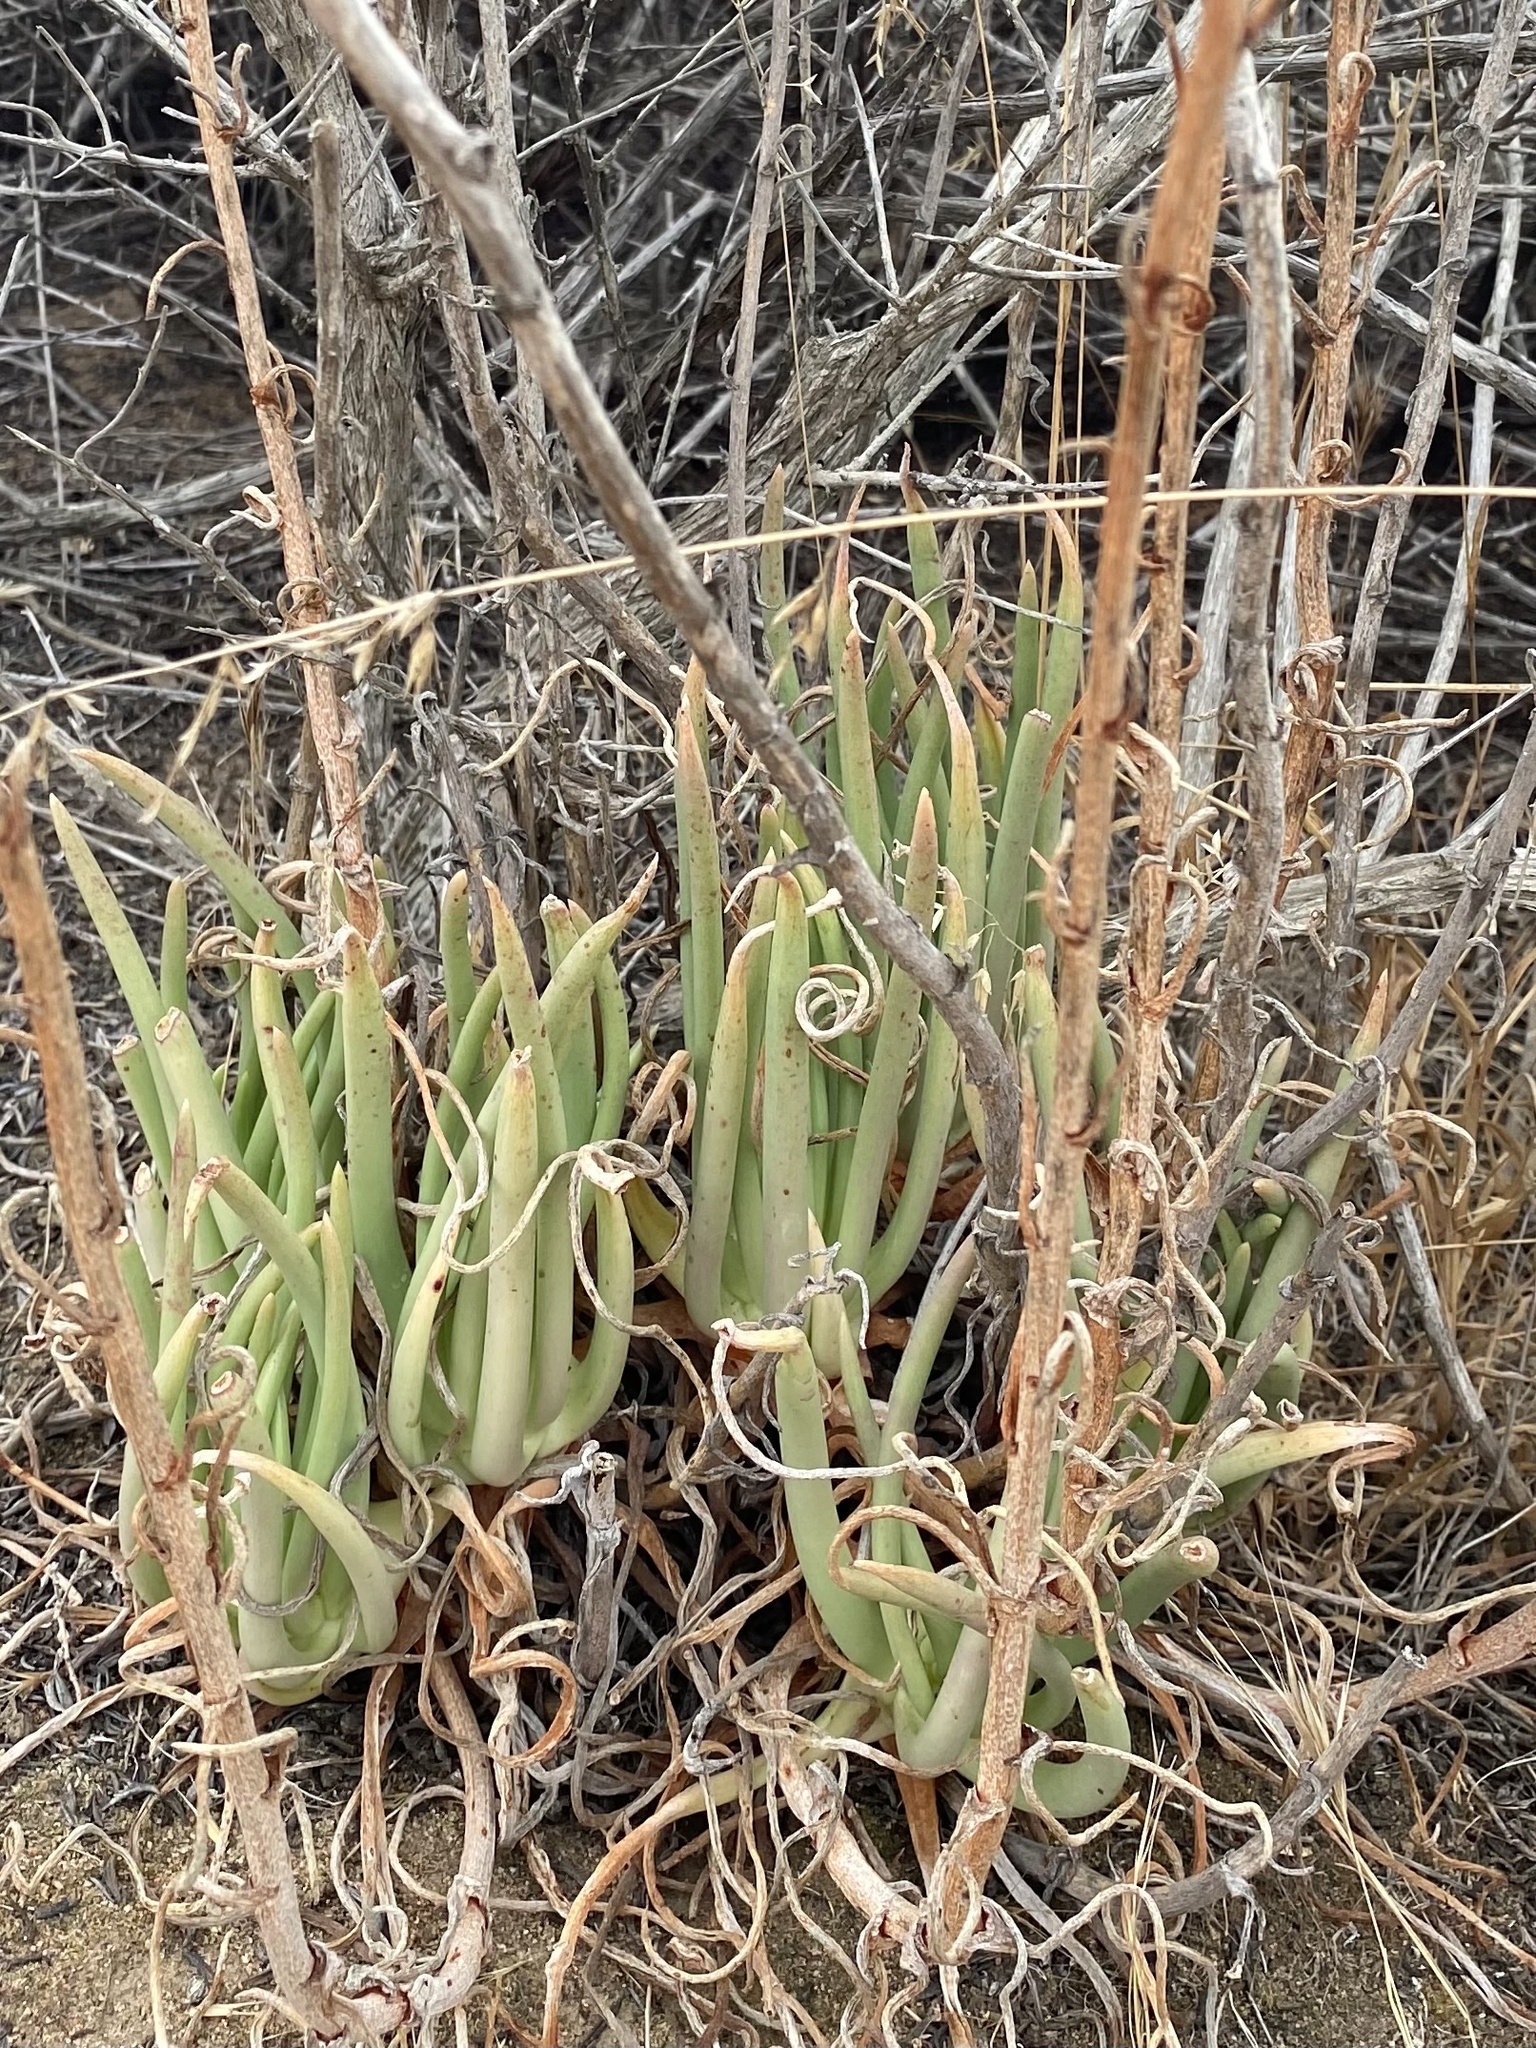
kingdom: Plantae
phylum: Tracheophyta
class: Magnoliopsida
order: Saxifragales
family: Crassulaceae
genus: Dudleya
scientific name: Dudleya edulis
